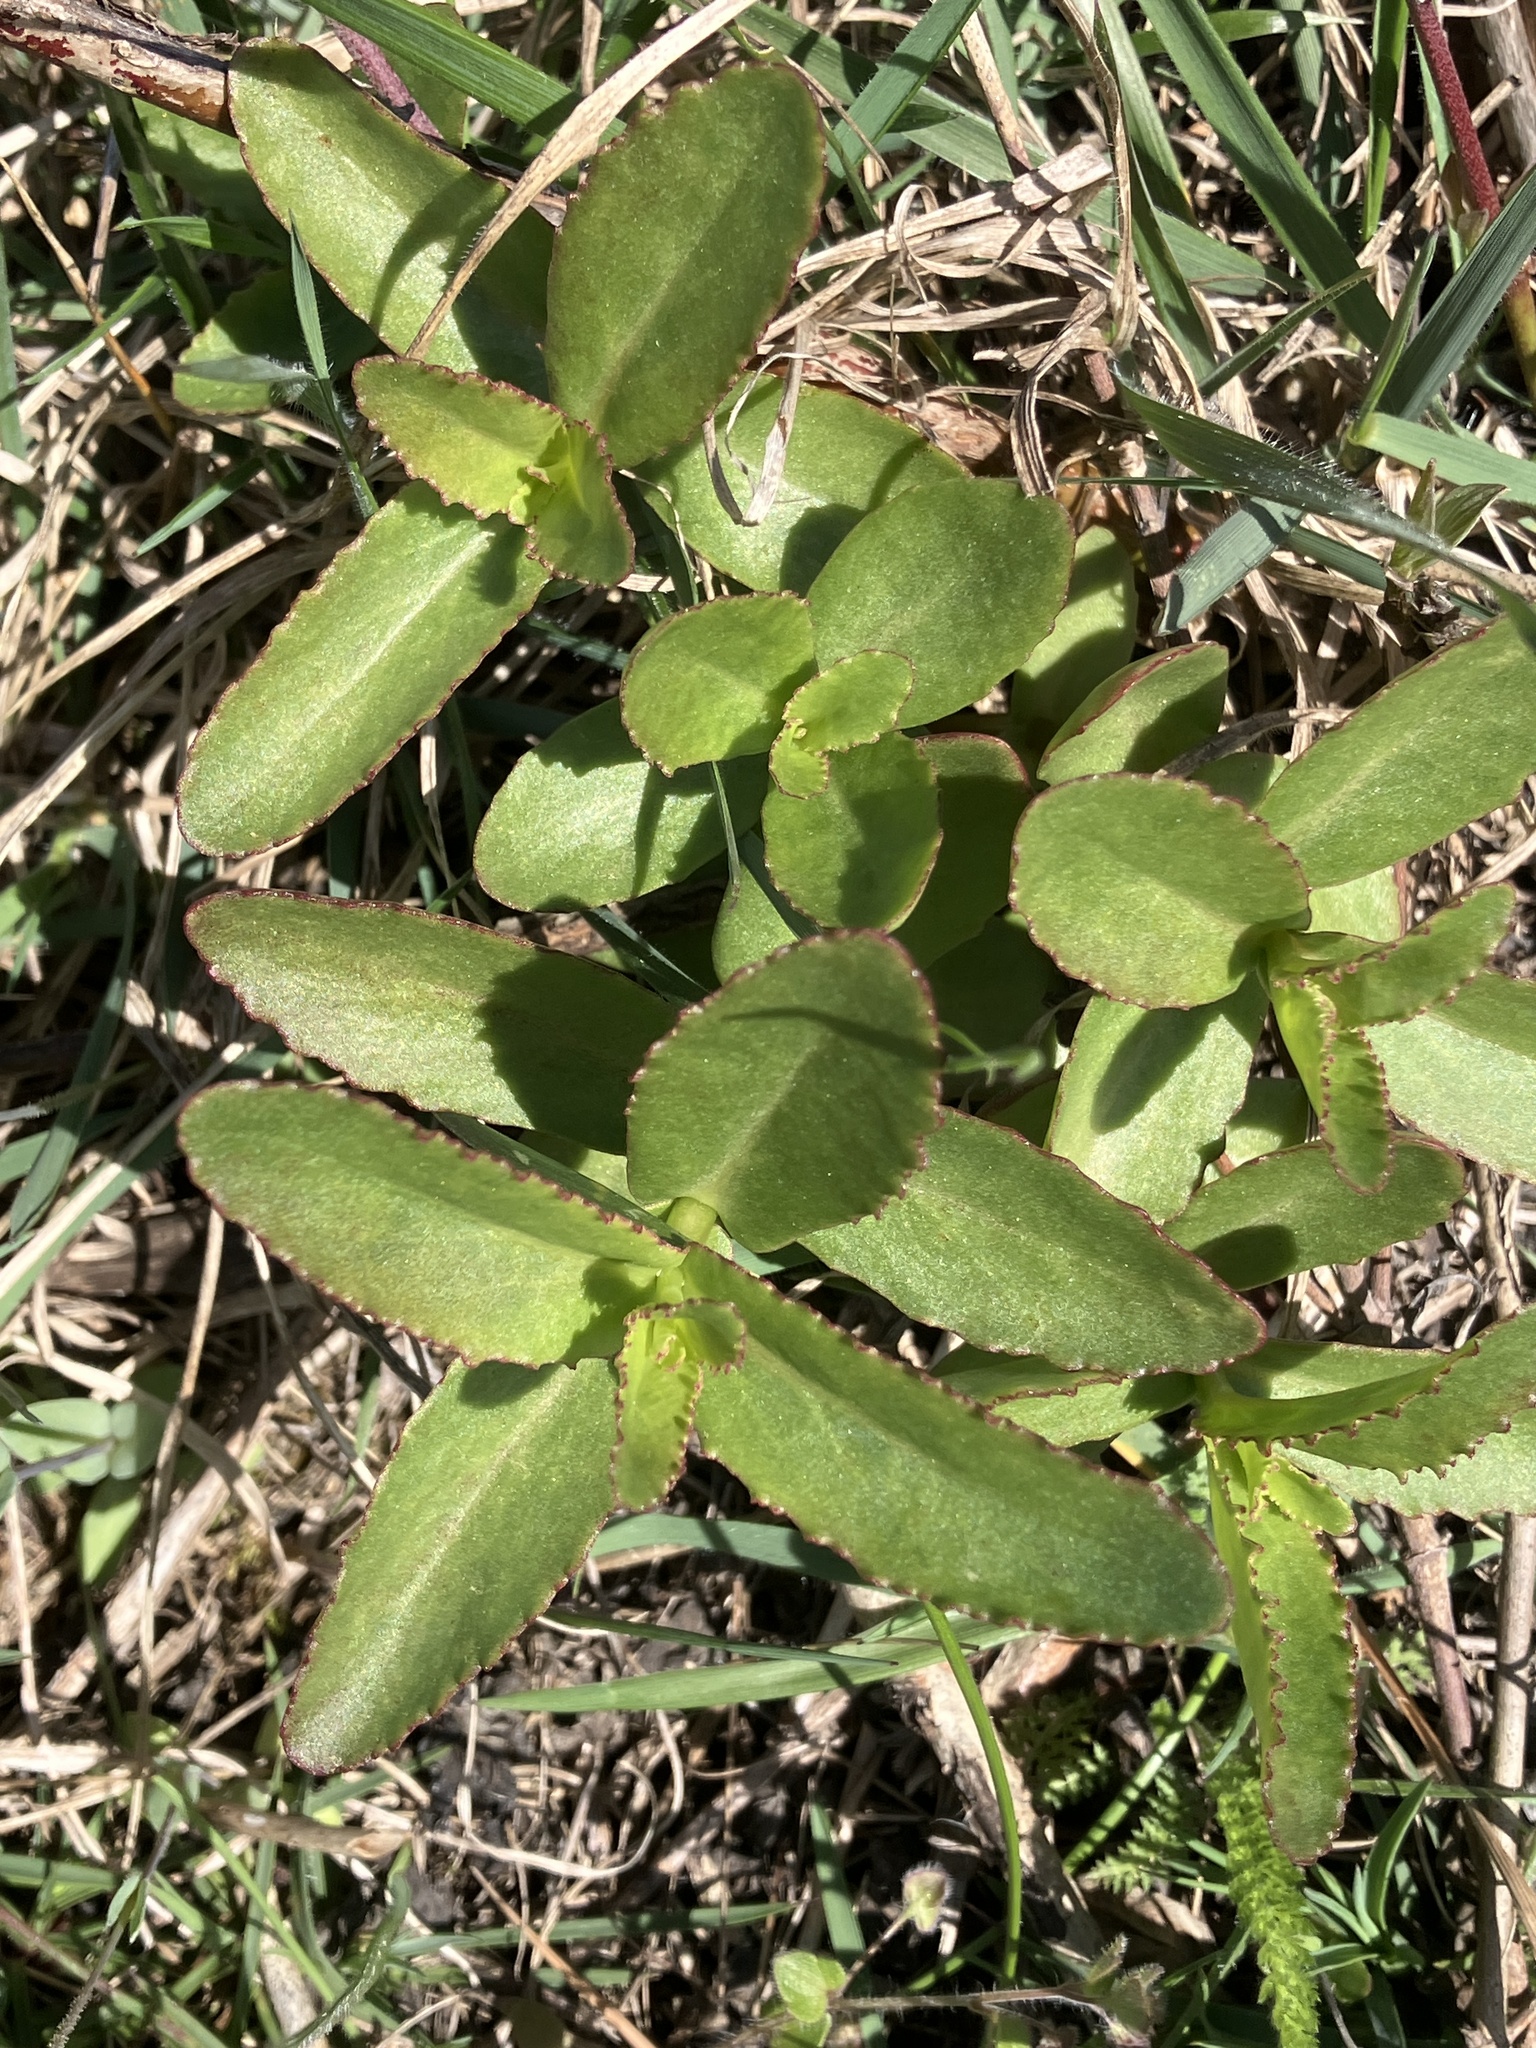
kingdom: Plantae
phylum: Tracheophyta
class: Magnoliopsida
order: Saxifragales
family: Crassulaceae
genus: Hylotelephium
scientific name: Hylotelephium maximum
